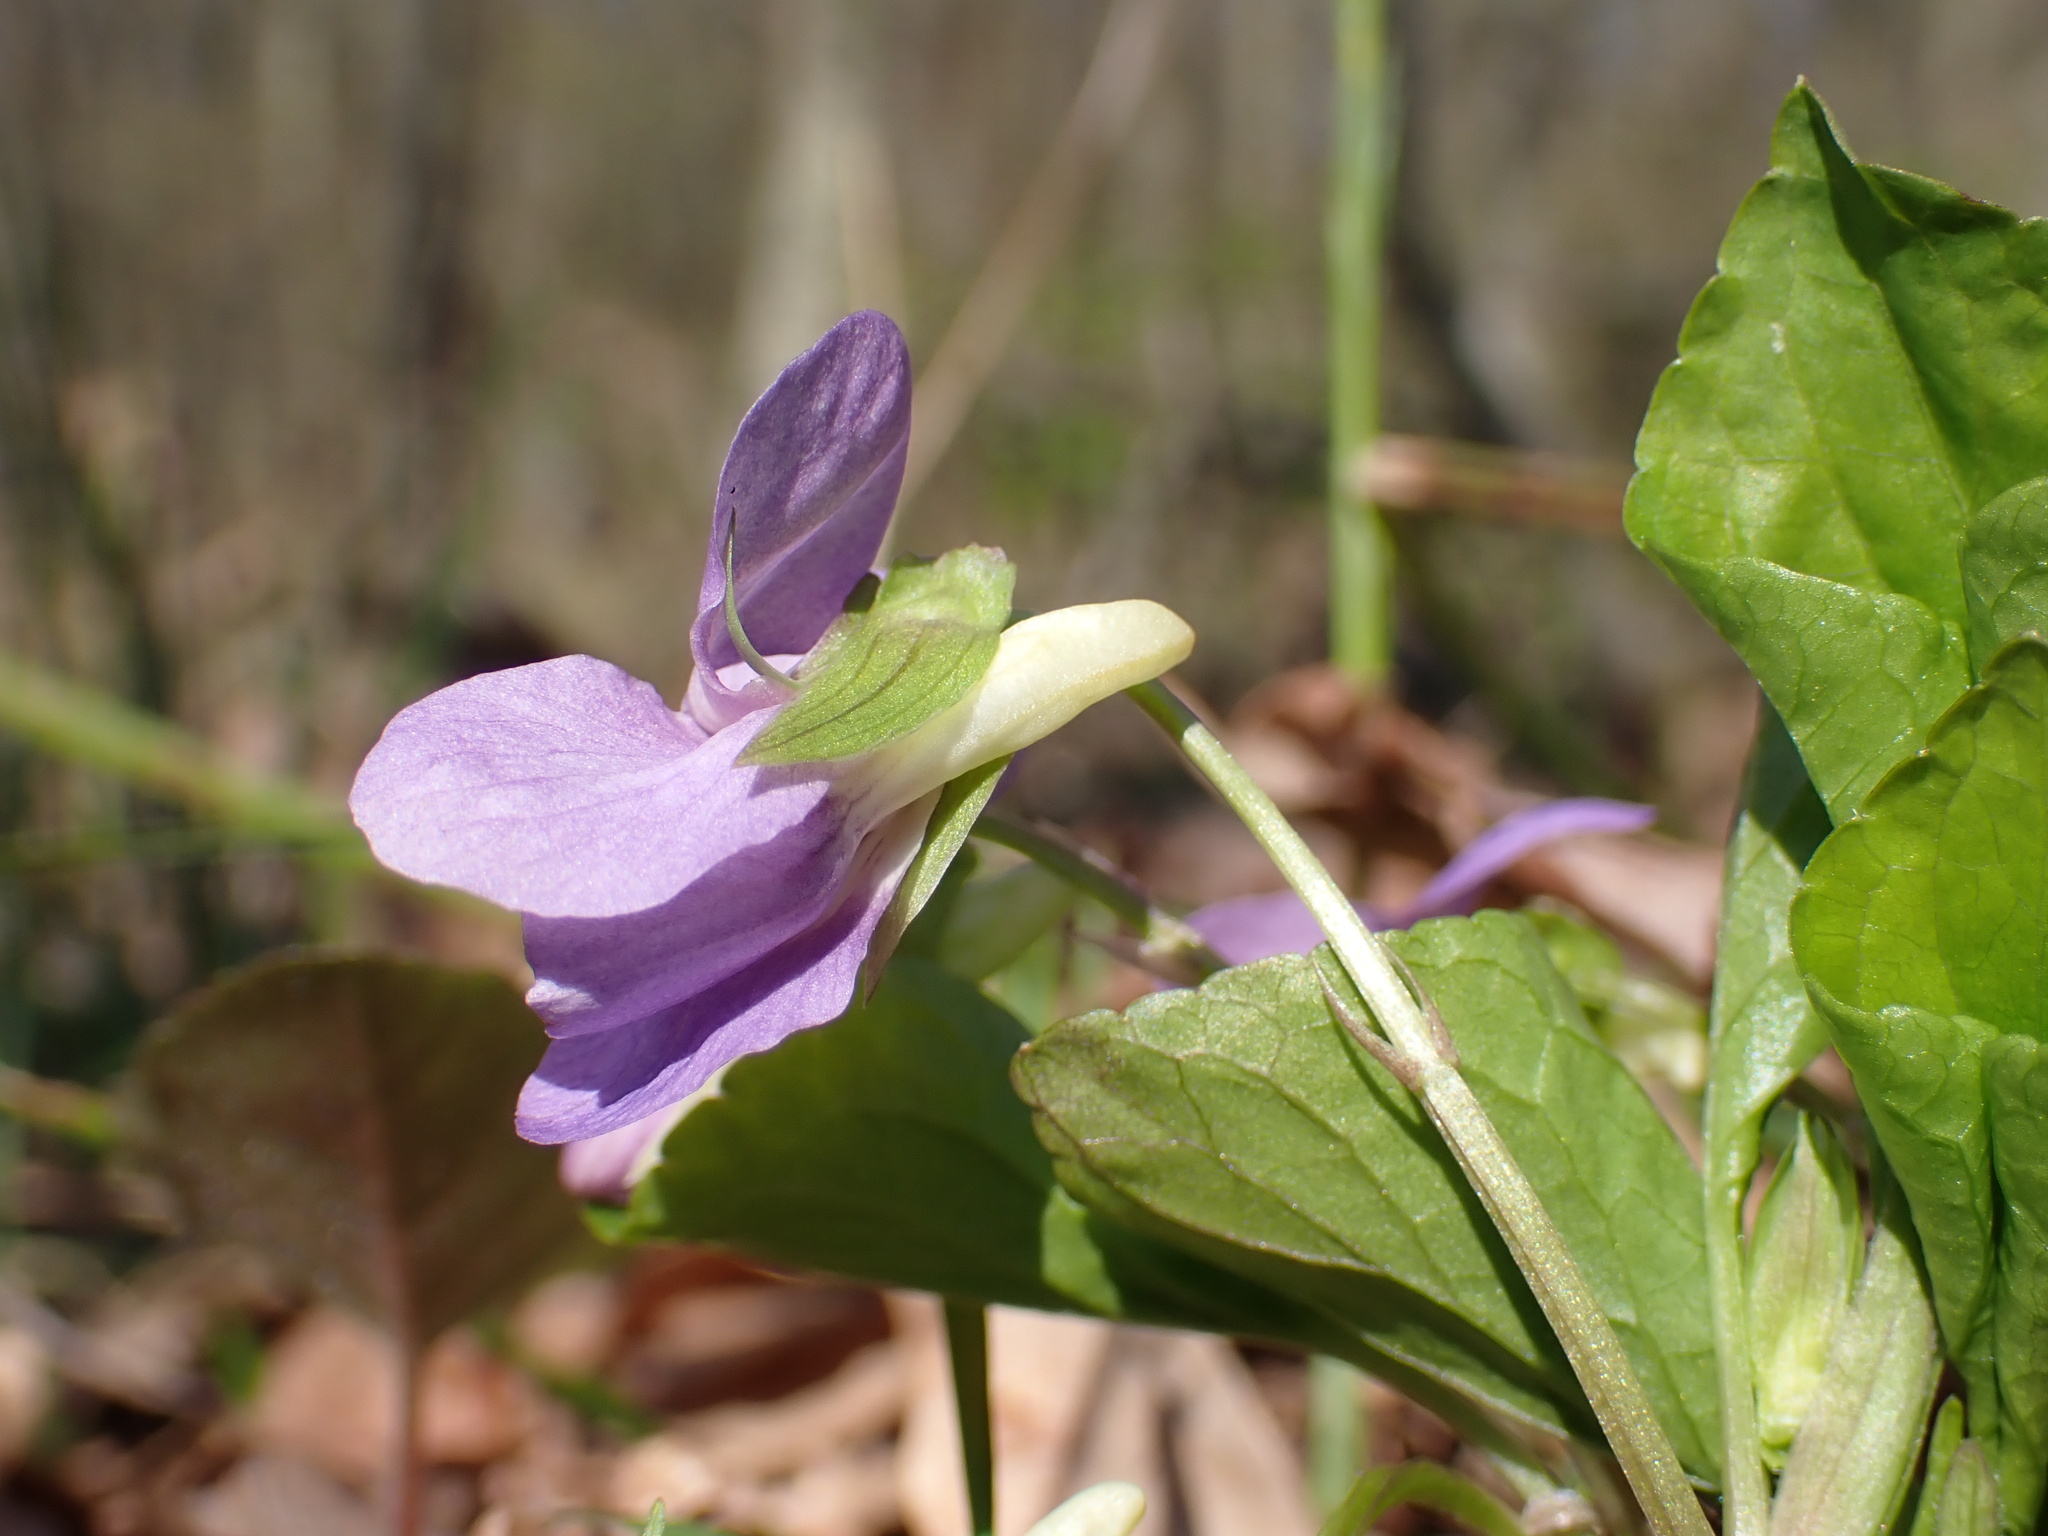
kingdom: Plantae
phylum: Tracheophyta
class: Magnoliopsida
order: Malpighiales
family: Violaceae
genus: Viola
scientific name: Viola mirabilis
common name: Wonder violet
